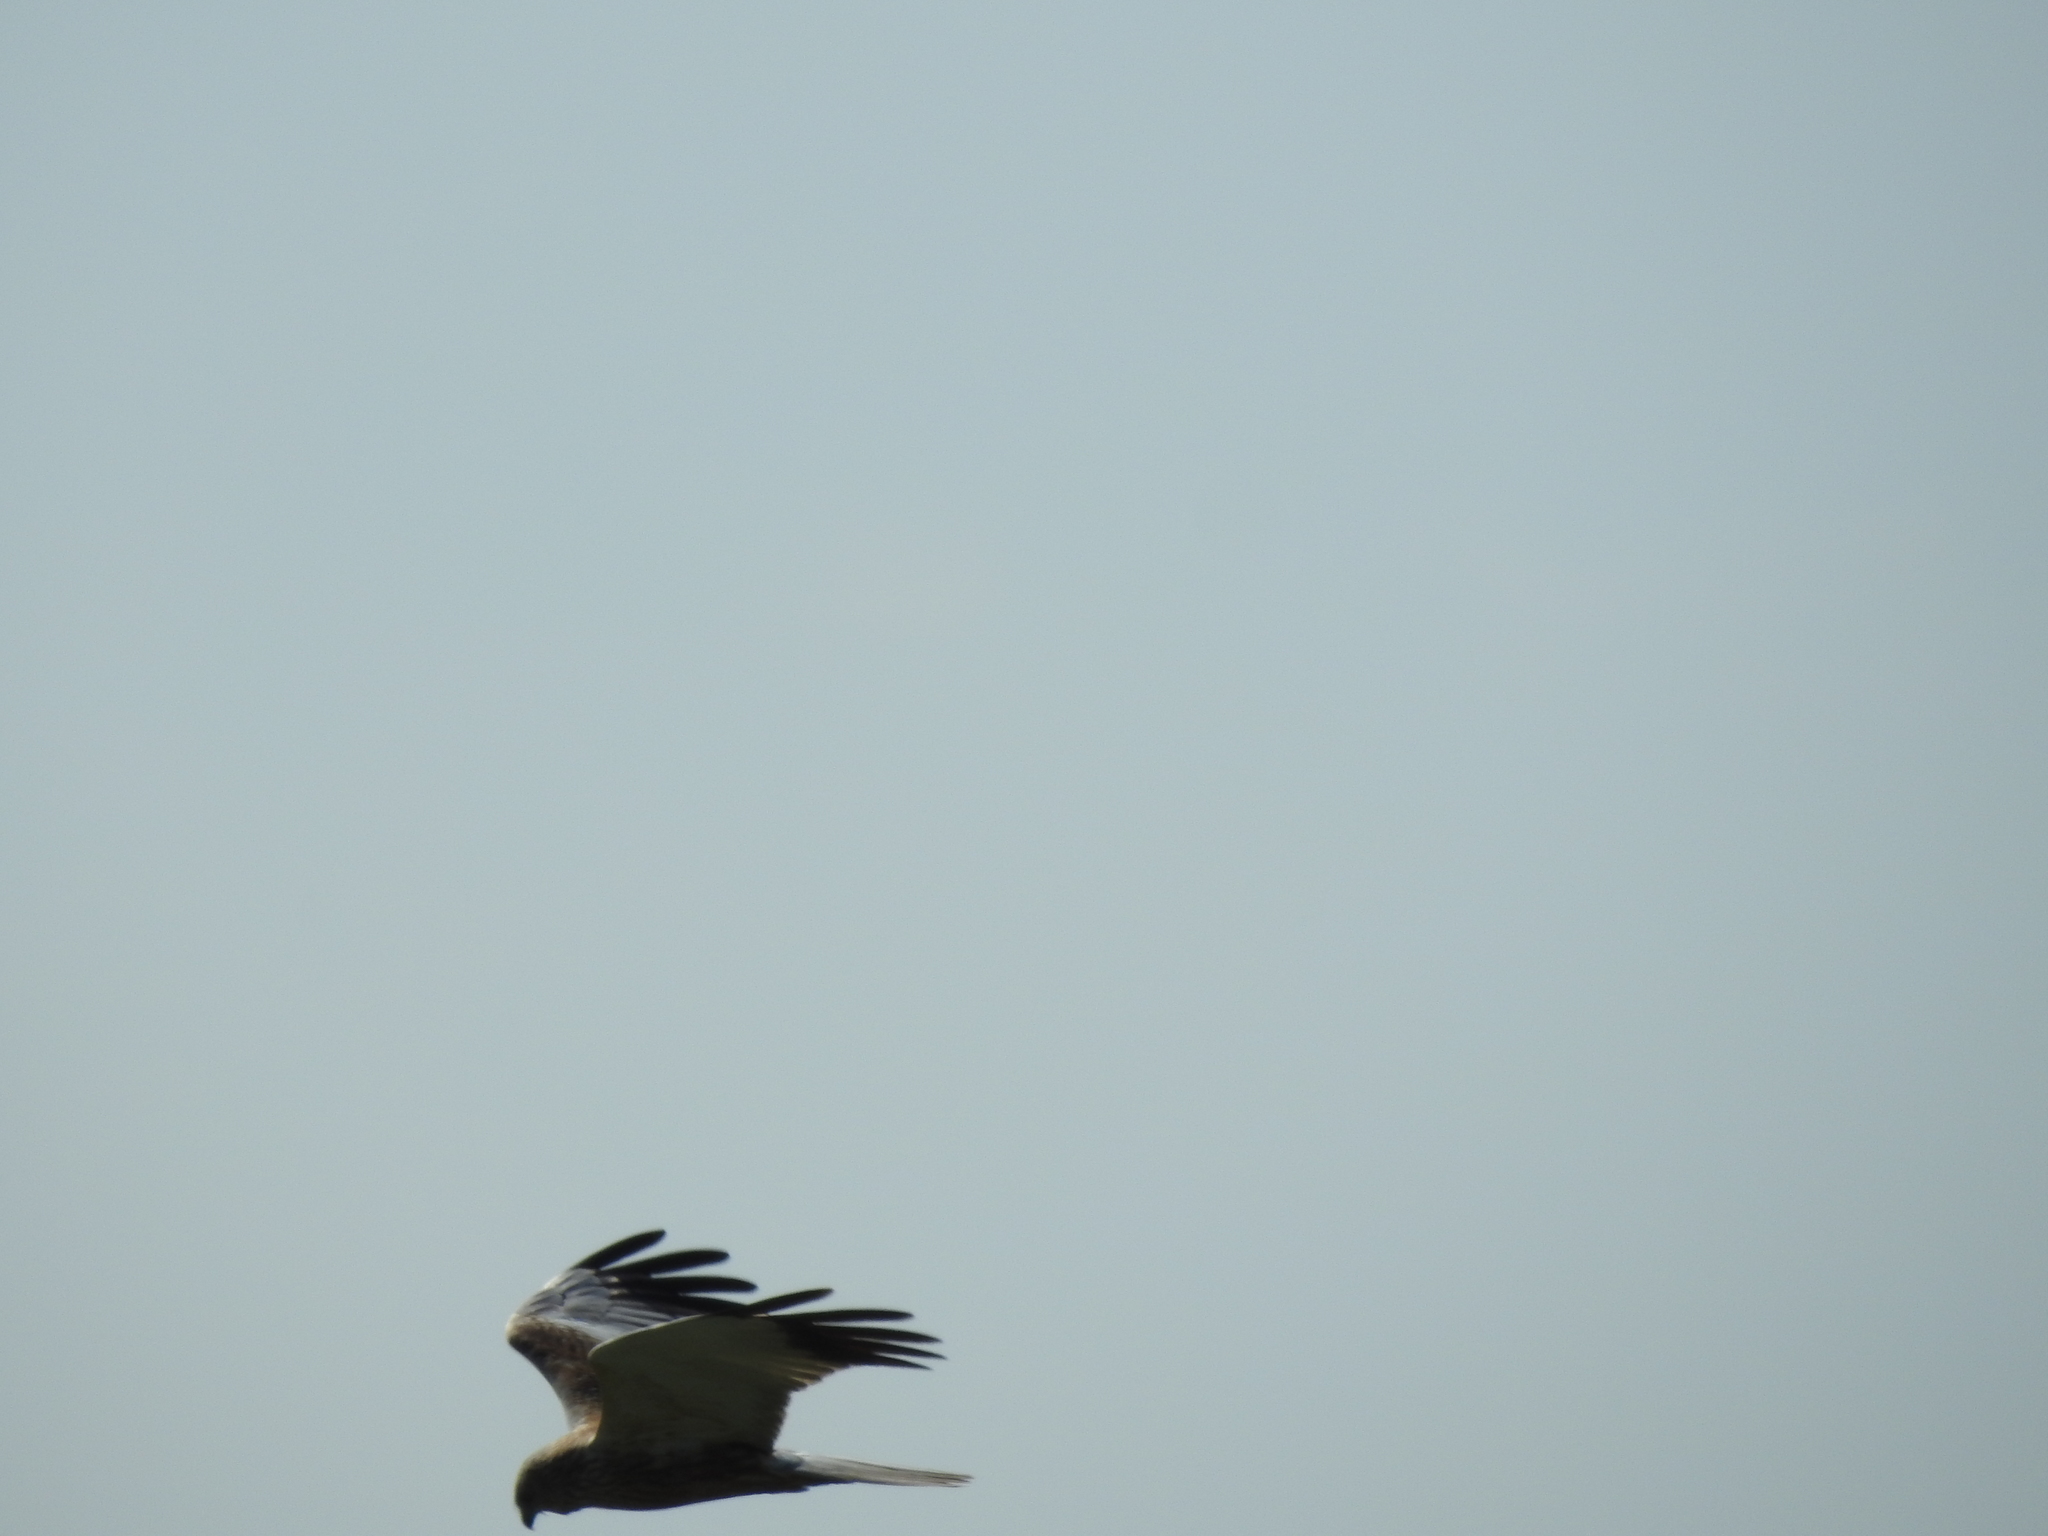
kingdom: Animalia
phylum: Chordata
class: Aves
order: Accipitriformes
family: Accipitridae
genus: Circus
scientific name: Circus aeruginosus
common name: Western marsh harrier
